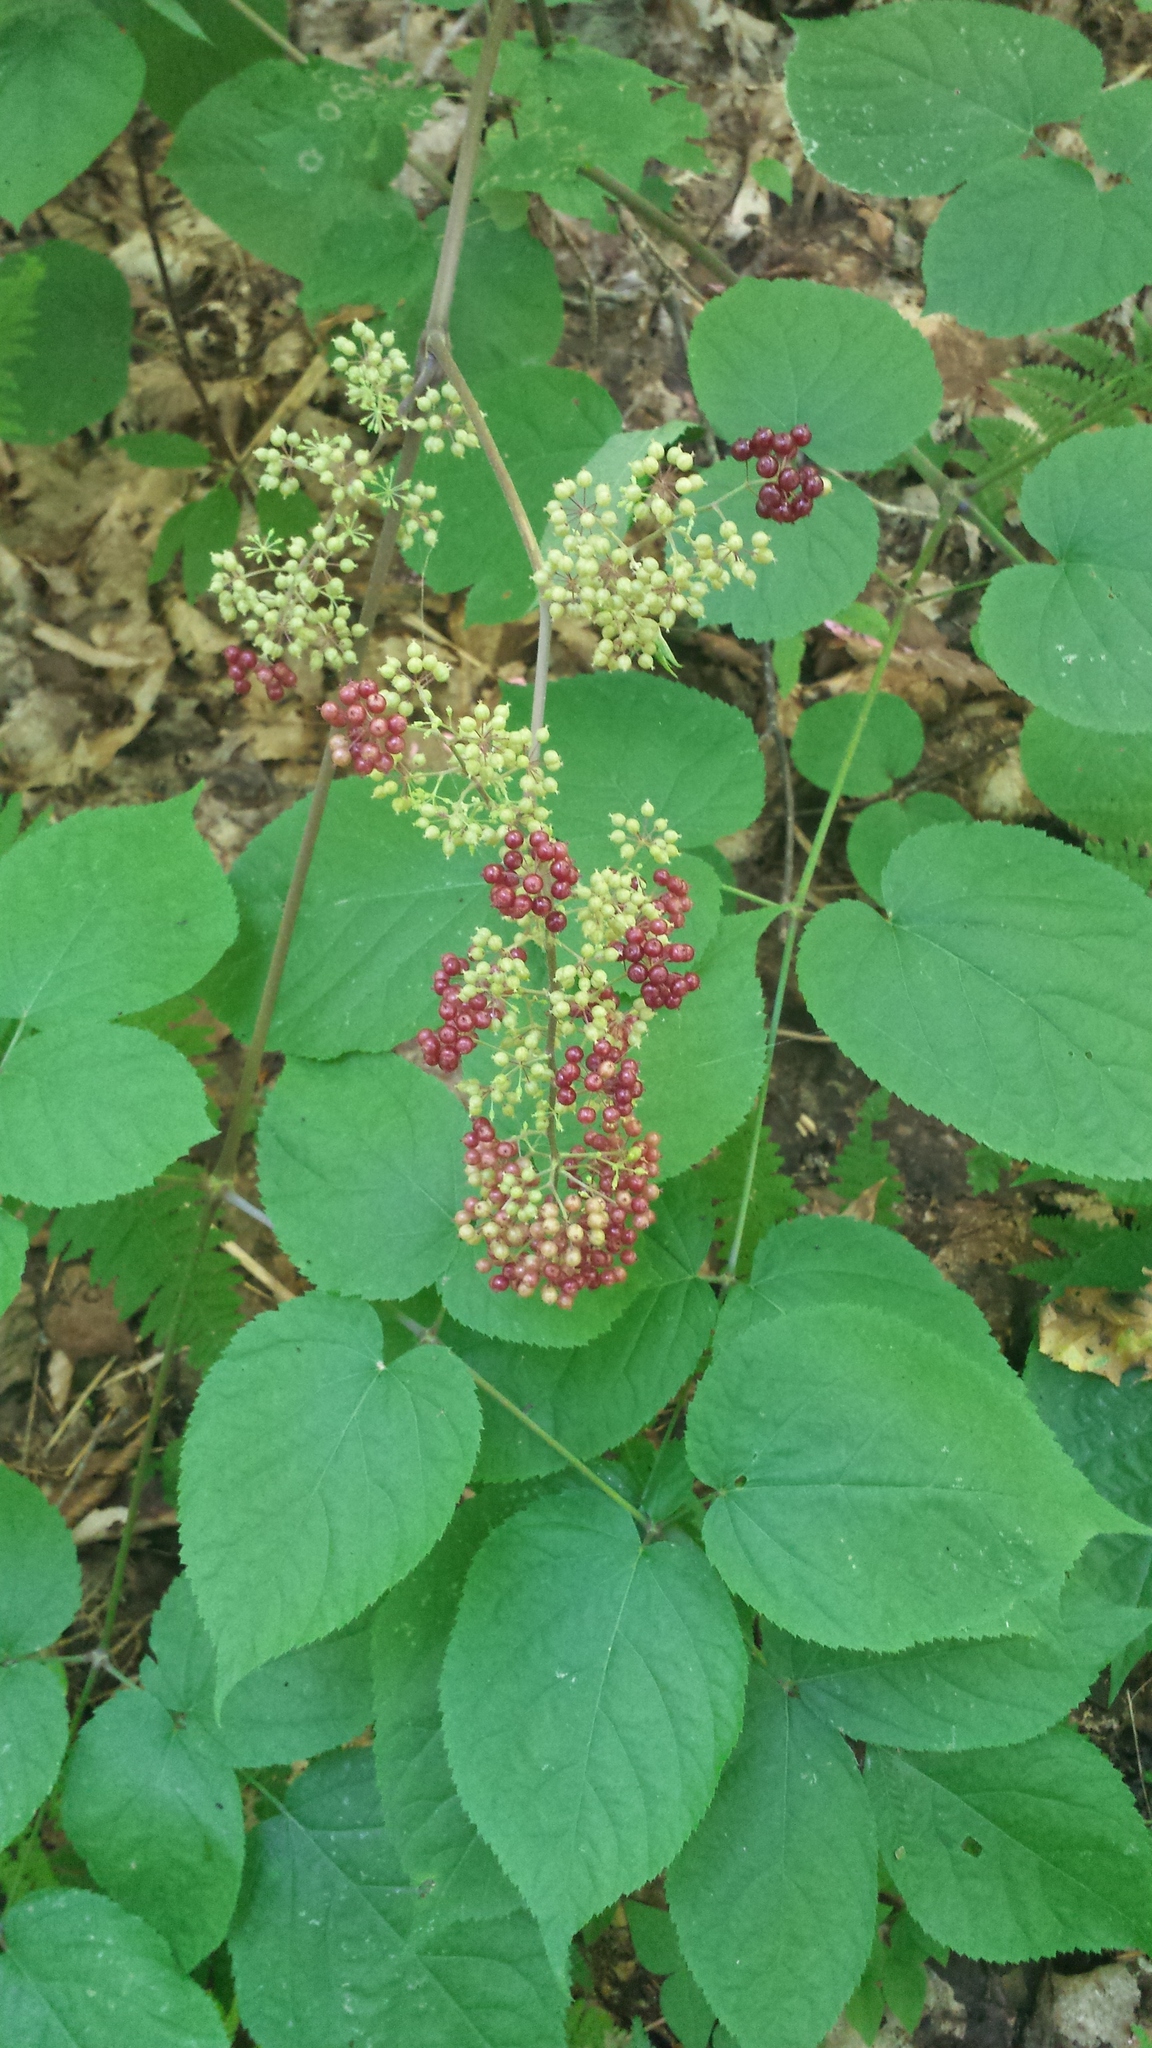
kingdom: Plantae
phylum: Tracheophyta
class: Magnoliopsida
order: Apiales
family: Araliaceae
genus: Aralia
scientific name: Aralia racemosa
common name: American-spikenard
